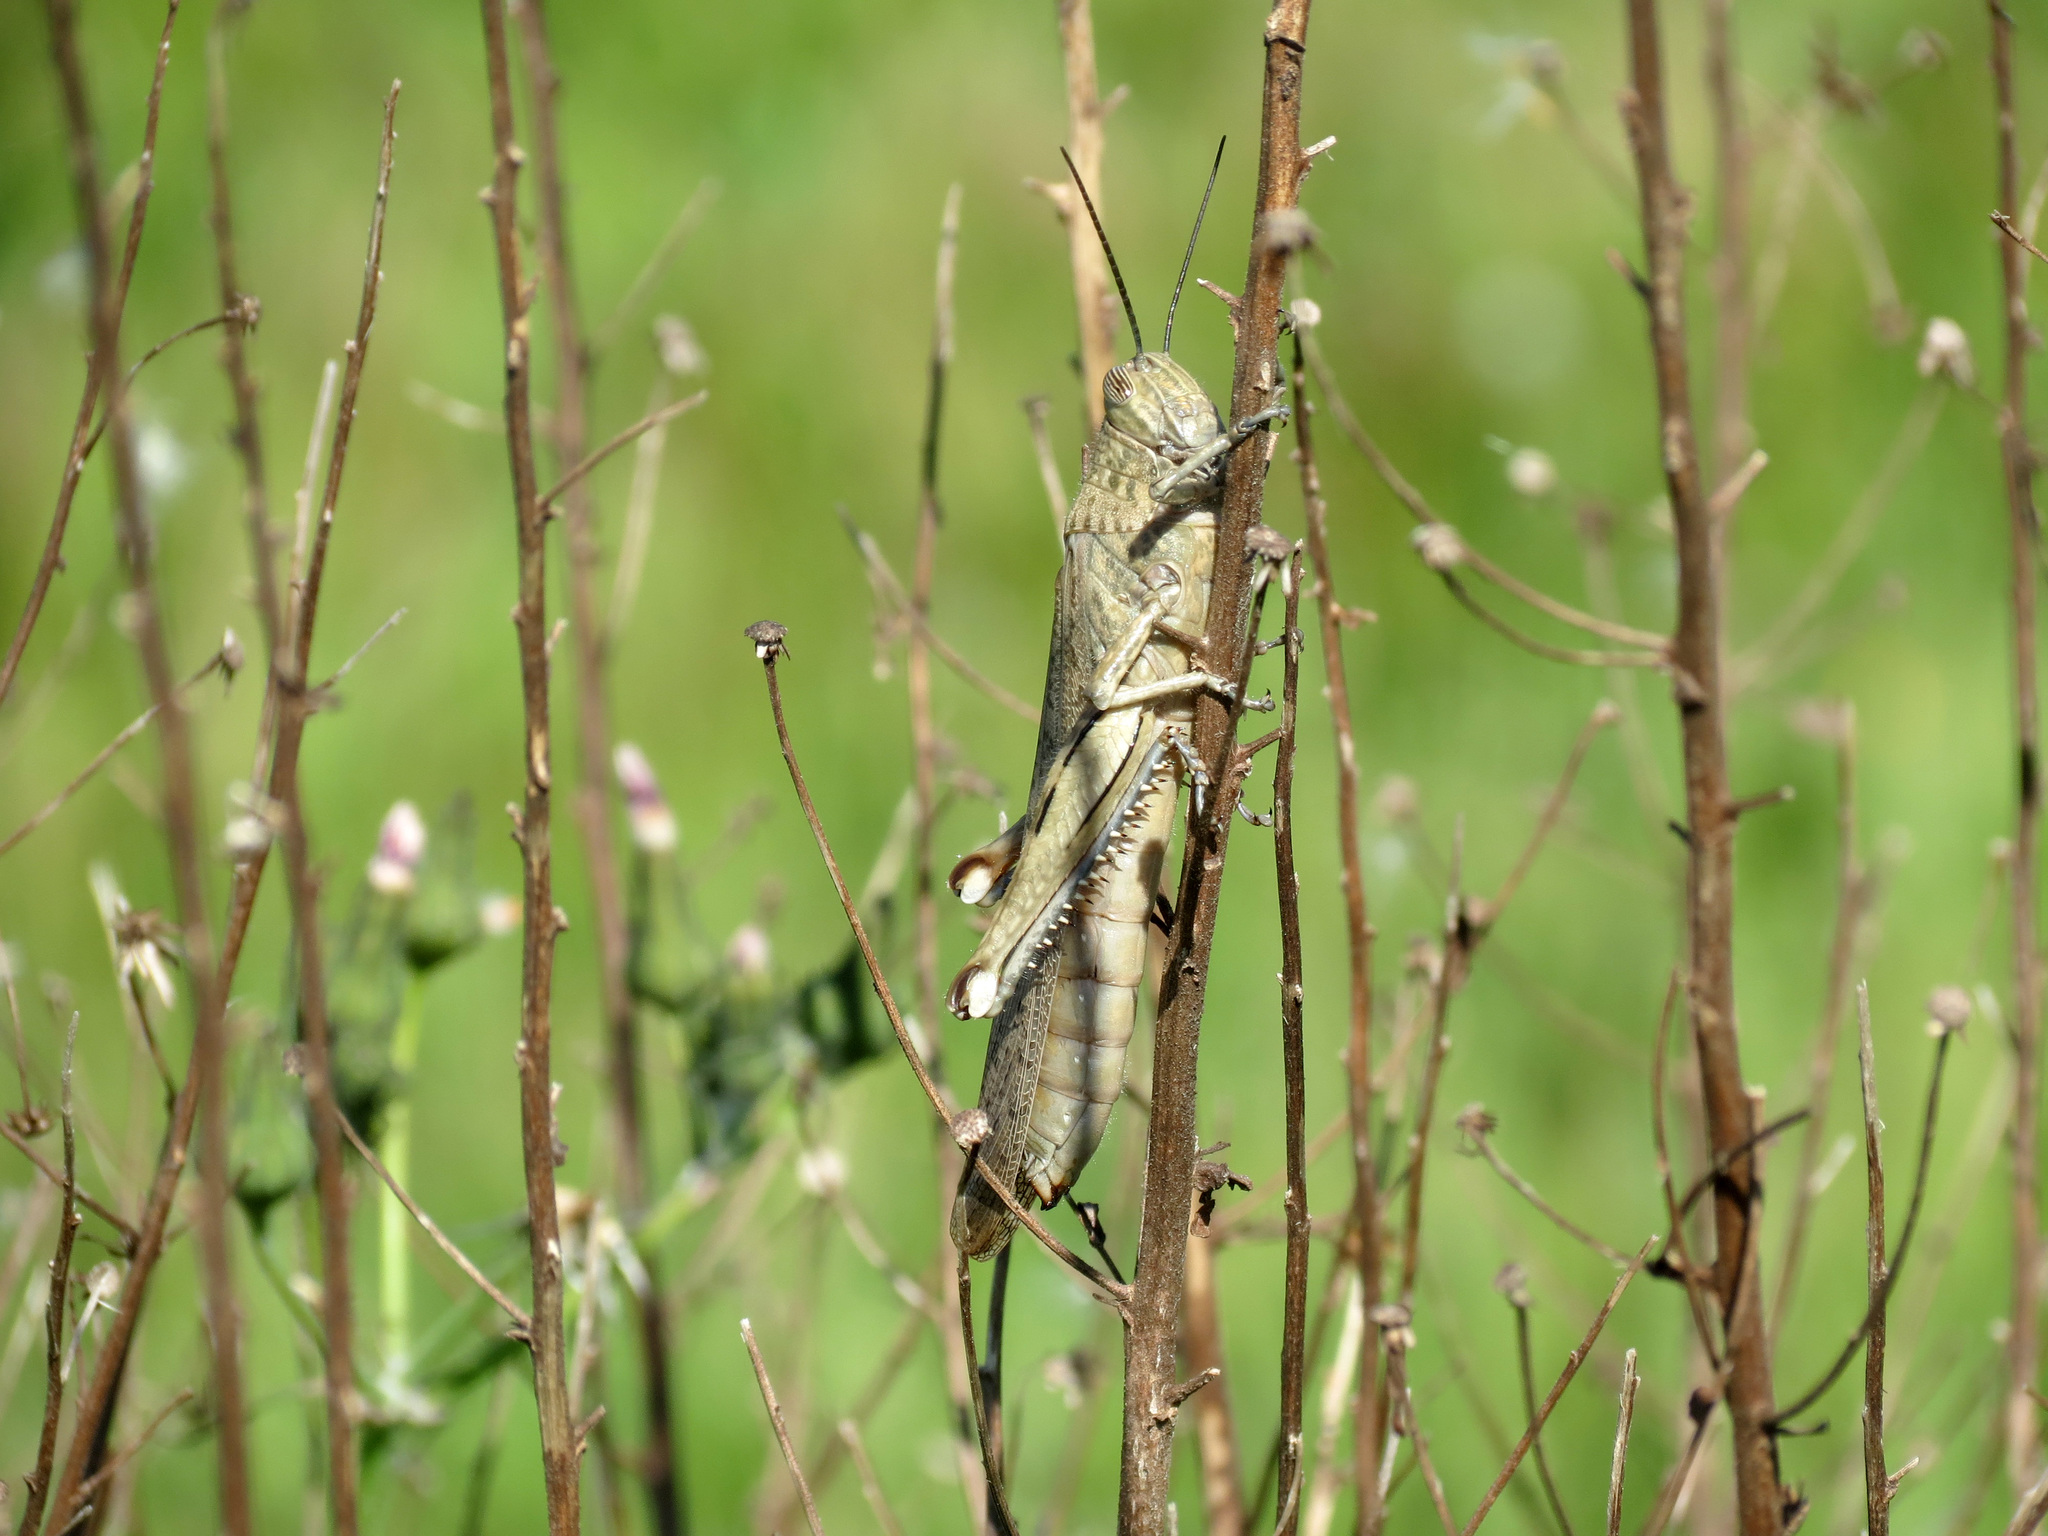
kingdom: Animalia
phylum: Arthropoda
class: Insecta
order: Orthoptera
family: Acrididae
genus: Anacridium
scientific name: Anacridium aegyptium
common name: Egyptian grasshopper
